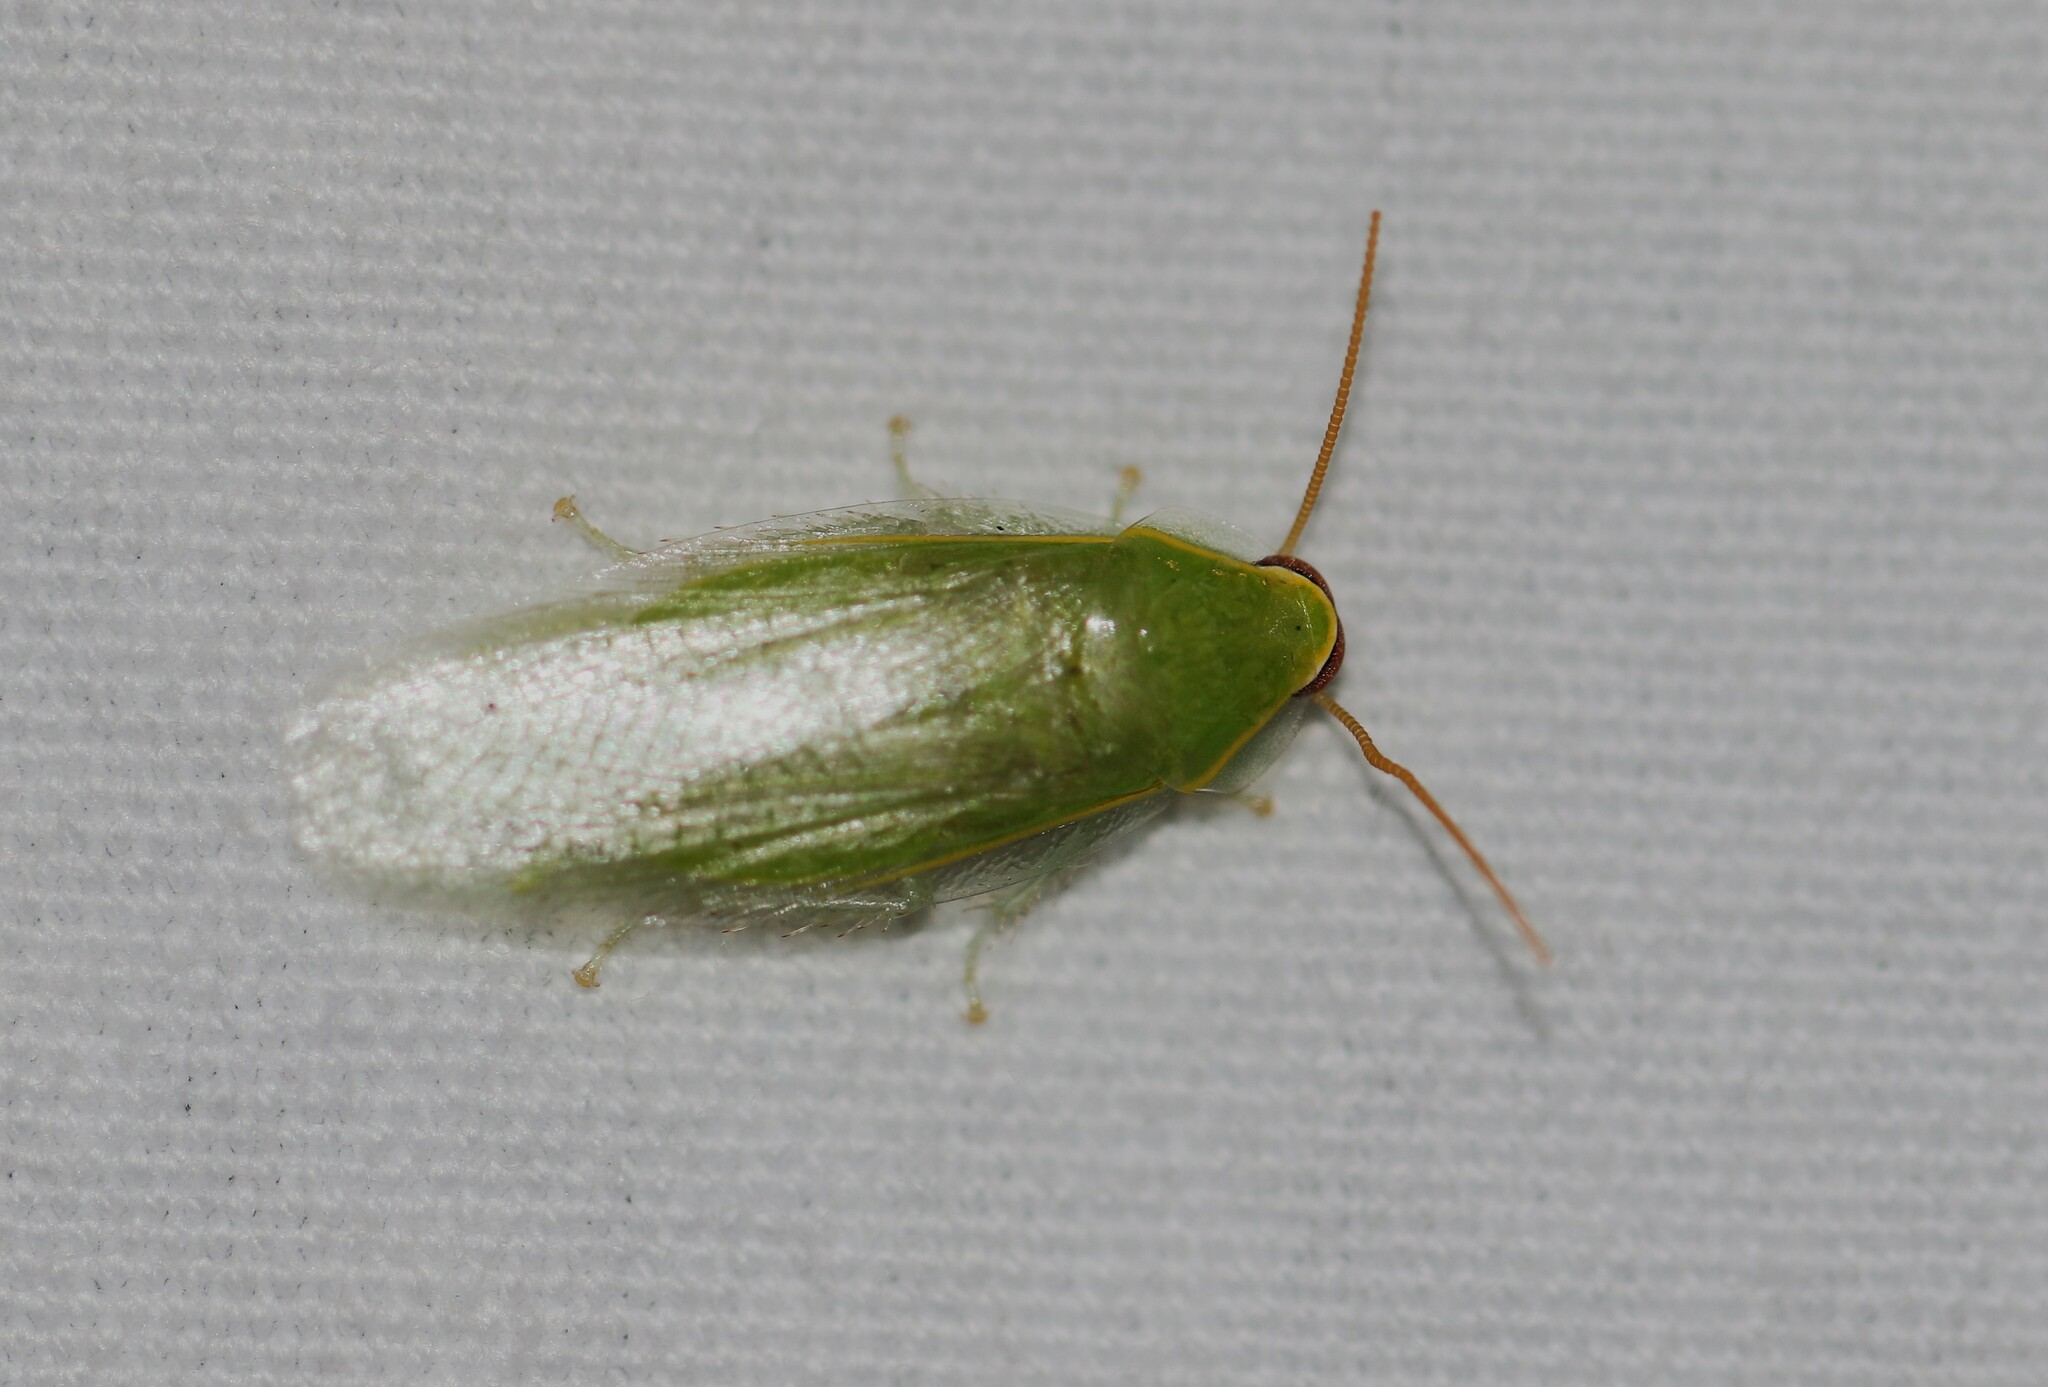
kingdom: Animalia
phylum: Arthropoda
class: Insecta
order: Blattodea
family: Blaberidae
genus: Panchlora
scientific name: Panchlora nivea
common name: Cuban cockroach
